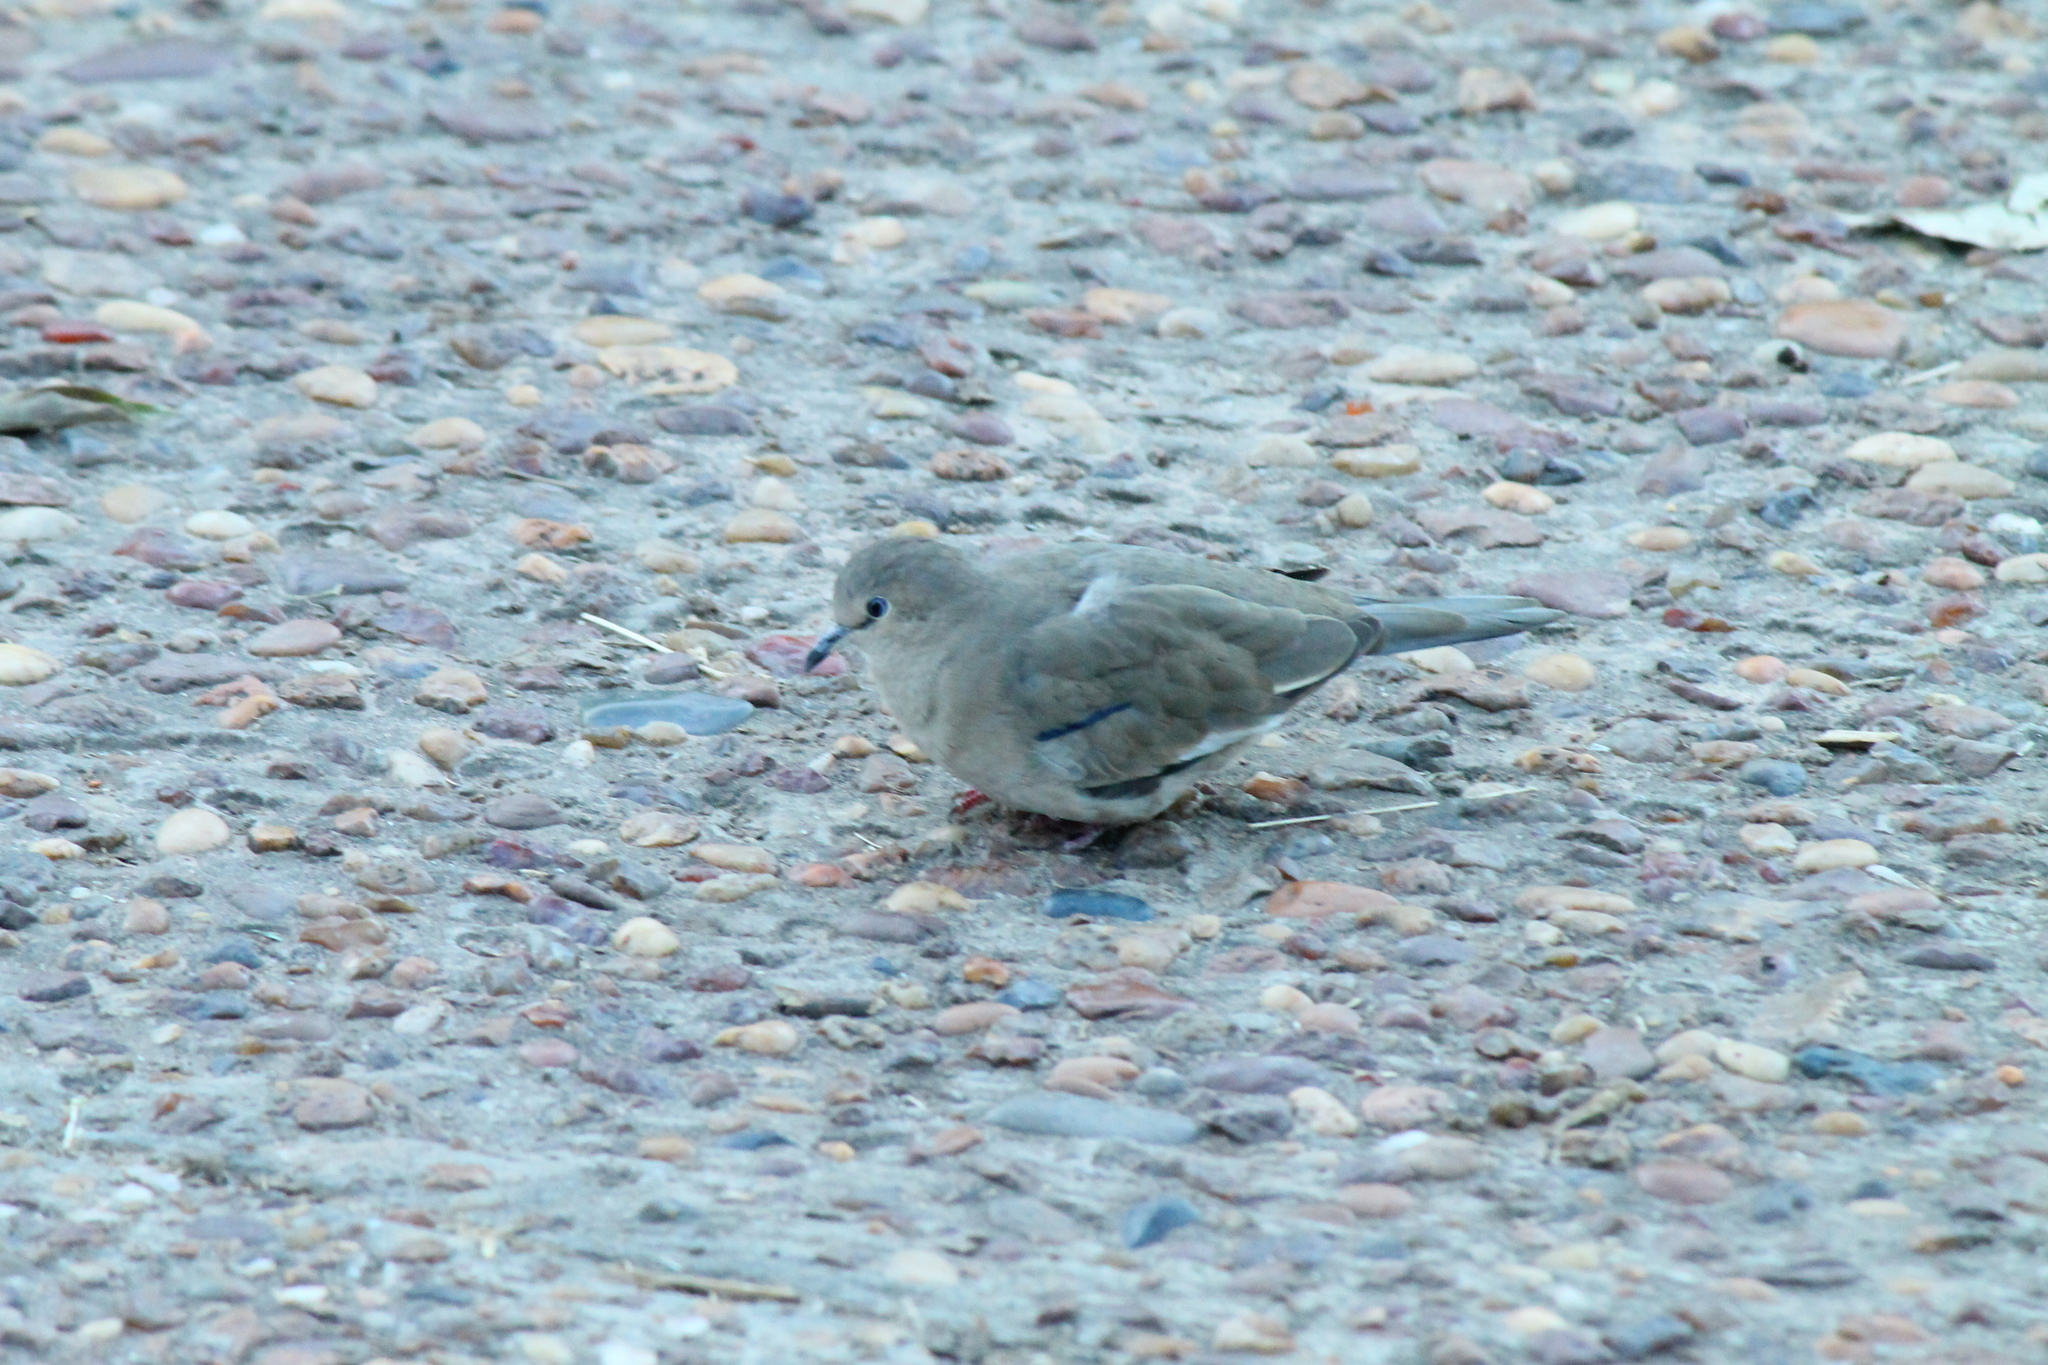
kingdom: Animalia
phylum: Chordata
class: Aves
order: Columbiformes
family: Columbidae
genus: Columbina
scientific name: Columbina picui
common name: Picui ground dove
